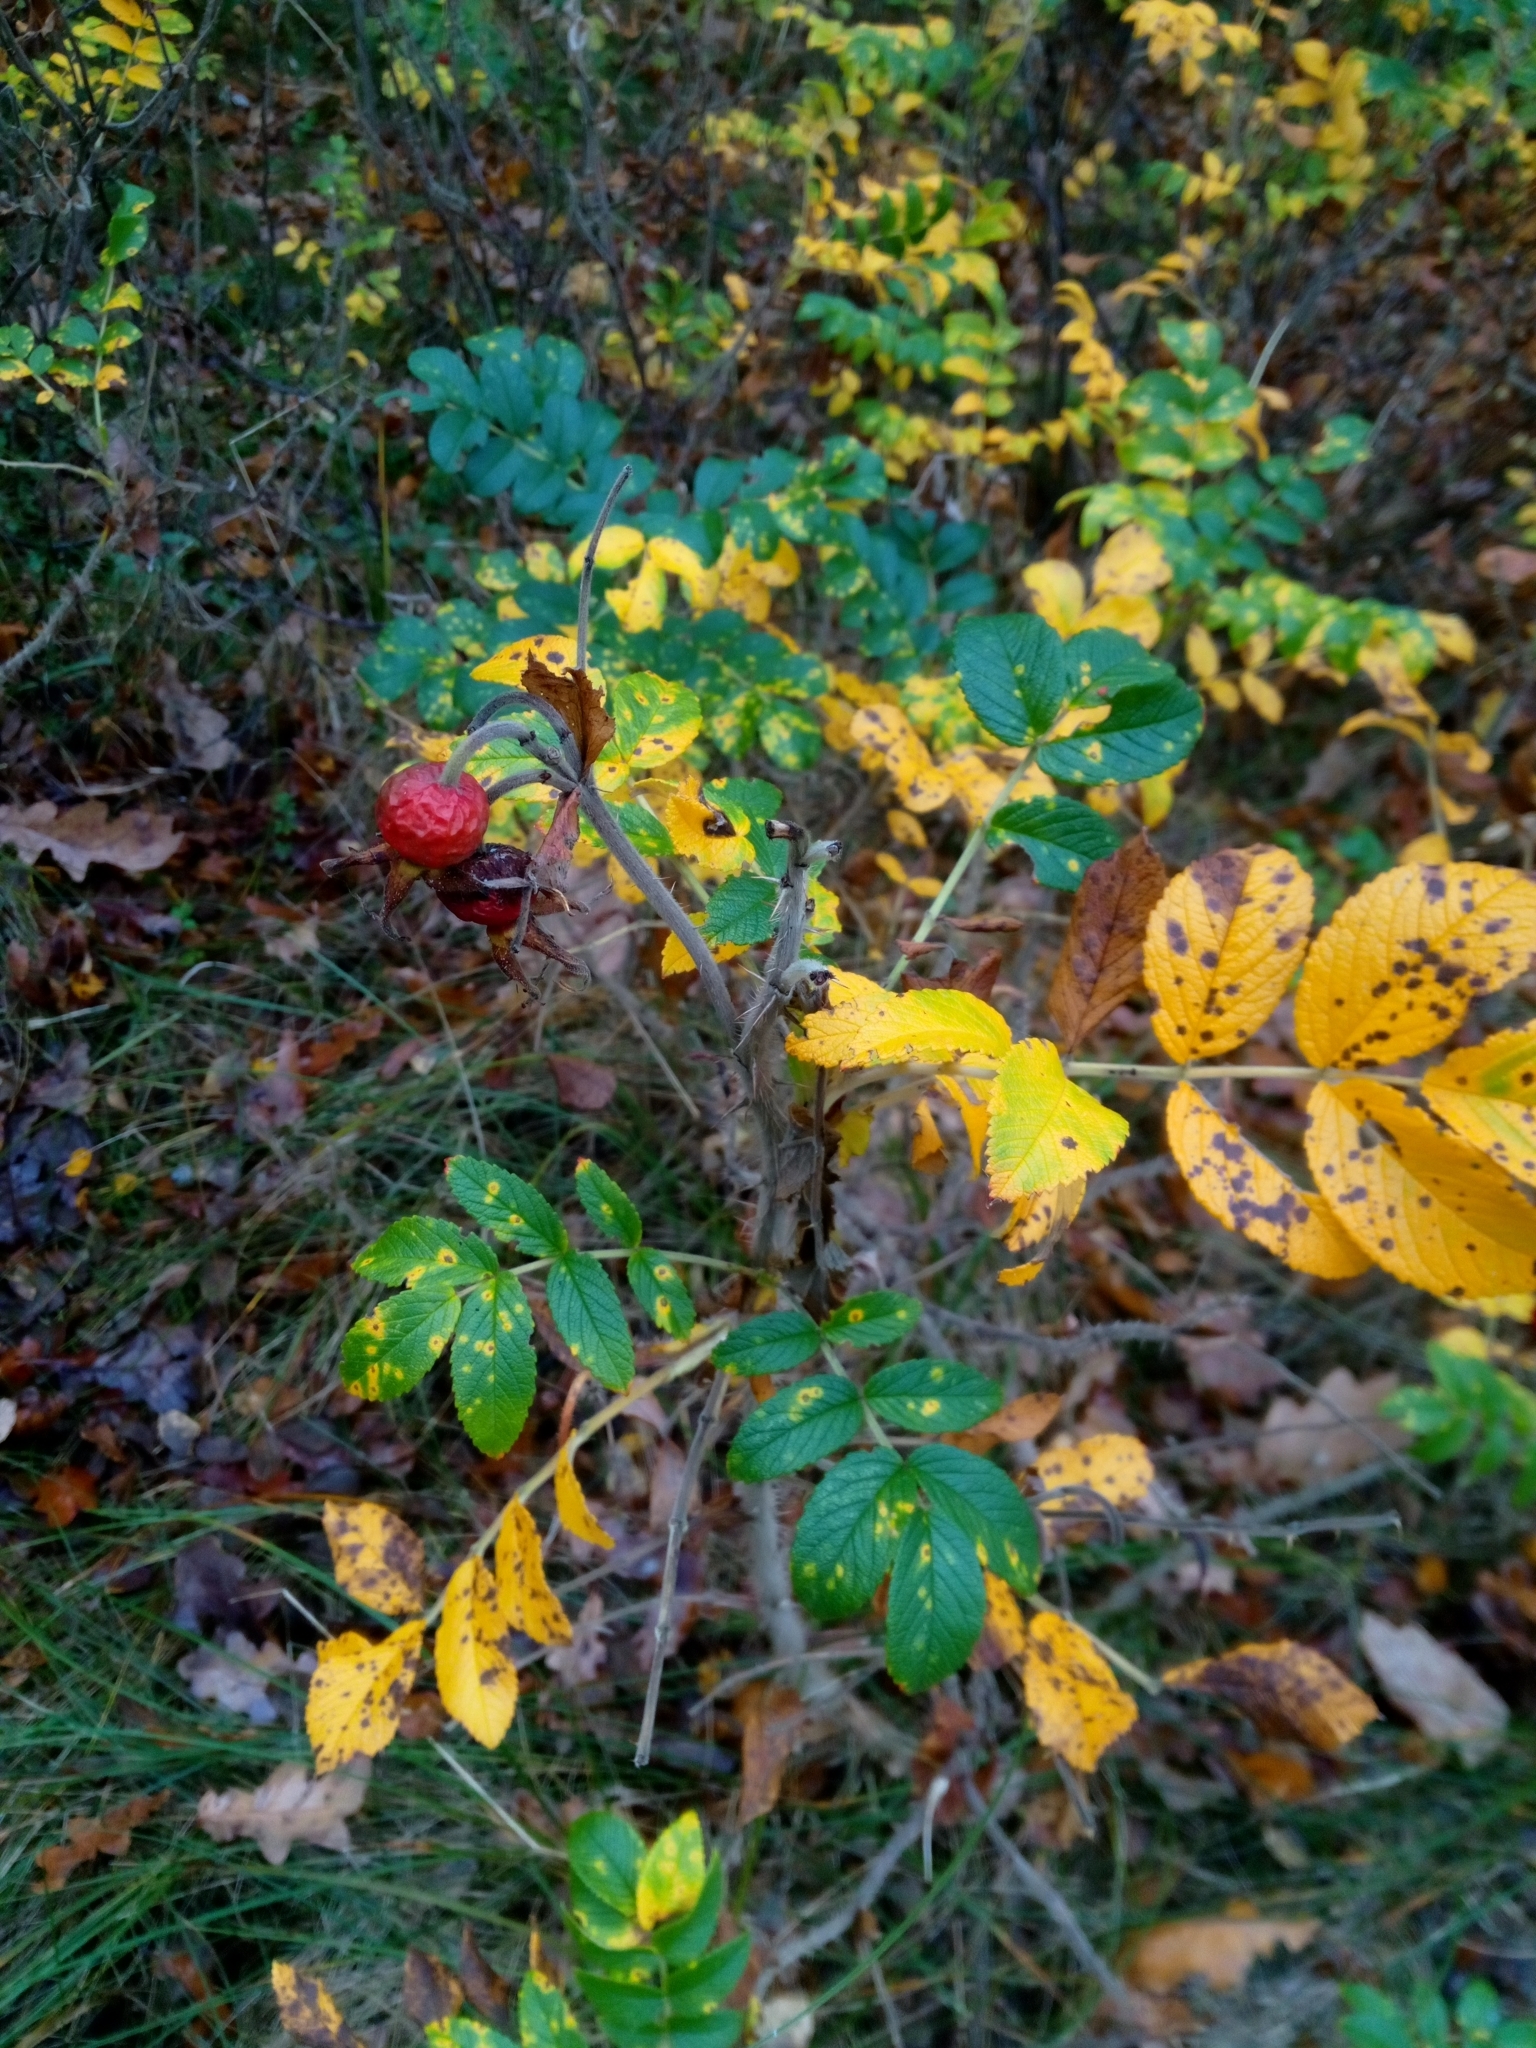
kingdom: Plantae
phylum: Tracheophyta
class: Magnoliopsida
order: Rosales
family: Rosaceae
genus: Rosa
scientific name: Rosa rugosa
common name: Japanese rose
